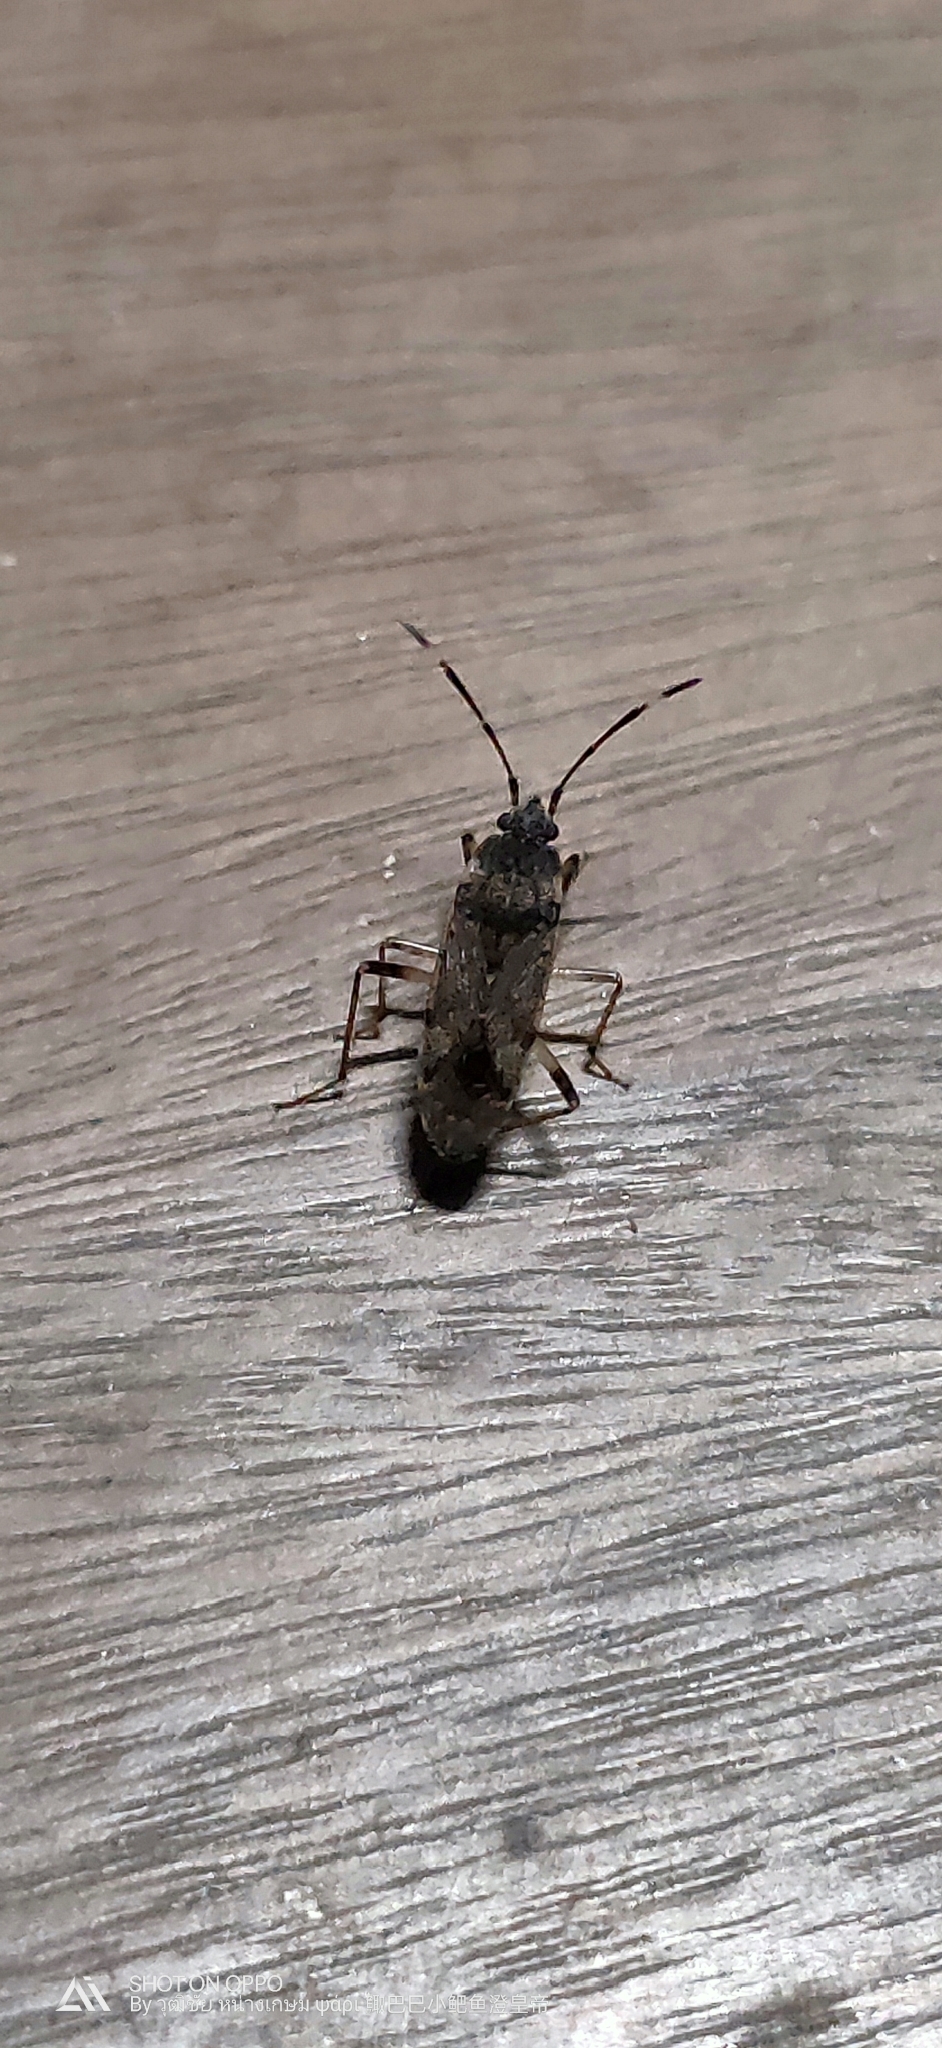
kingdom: Animalia
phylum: Arthropoda
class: Insecta
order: Hemiptera
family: Rhyparochromidae
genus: Elasmolomus
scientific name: Elasmolomus pallens
